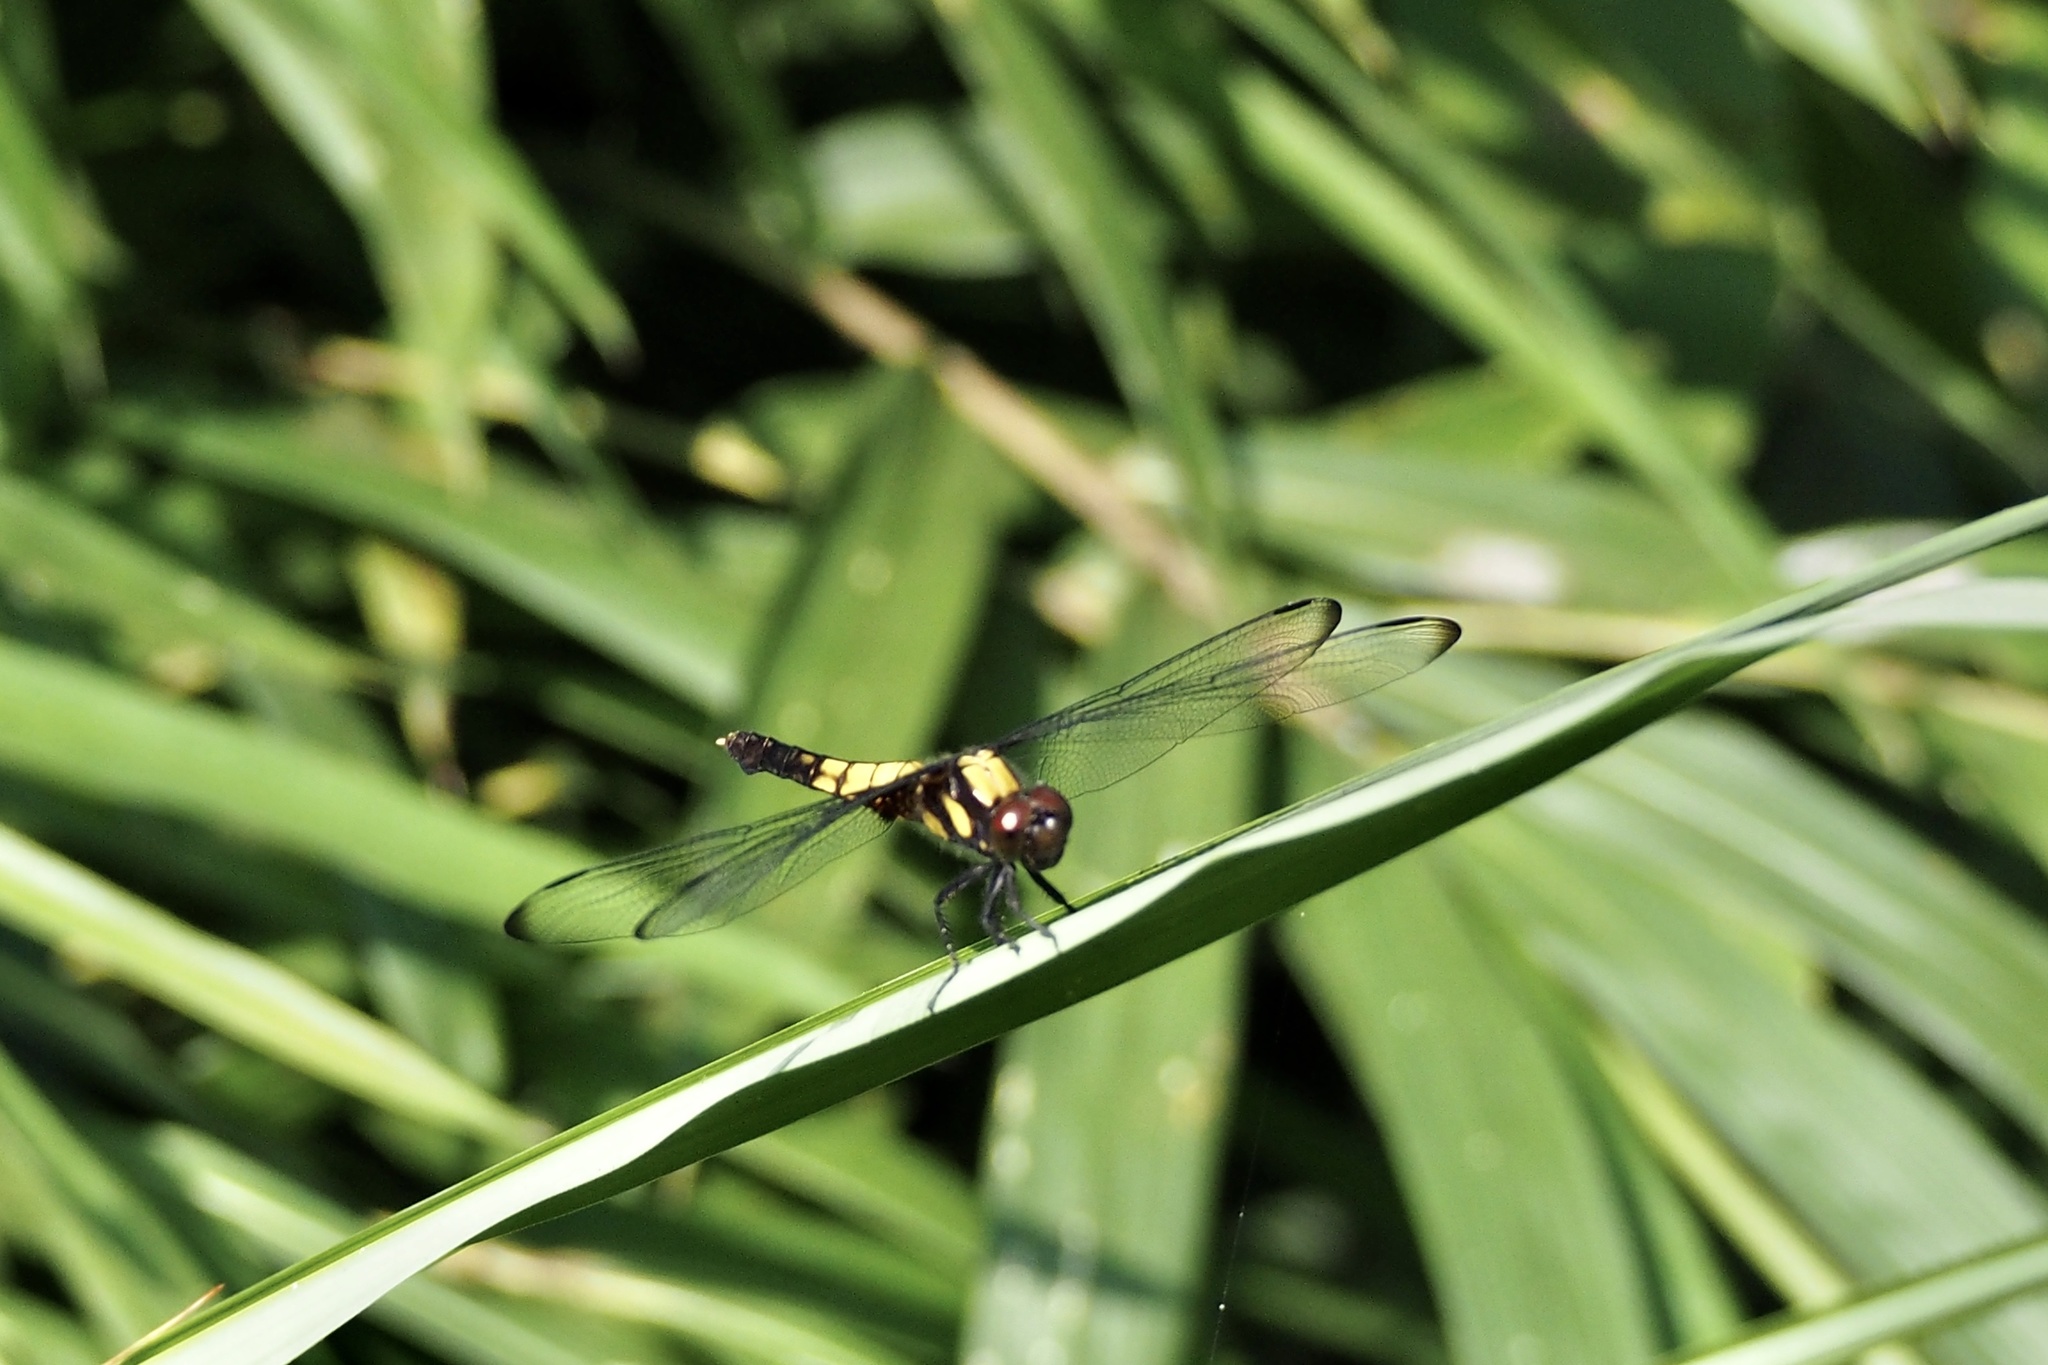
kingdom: Animalia
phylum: Arthropoda
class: Insecta
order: Odonata
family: Libellulidae
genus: Orthetrum
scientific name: Orthetrum melania
